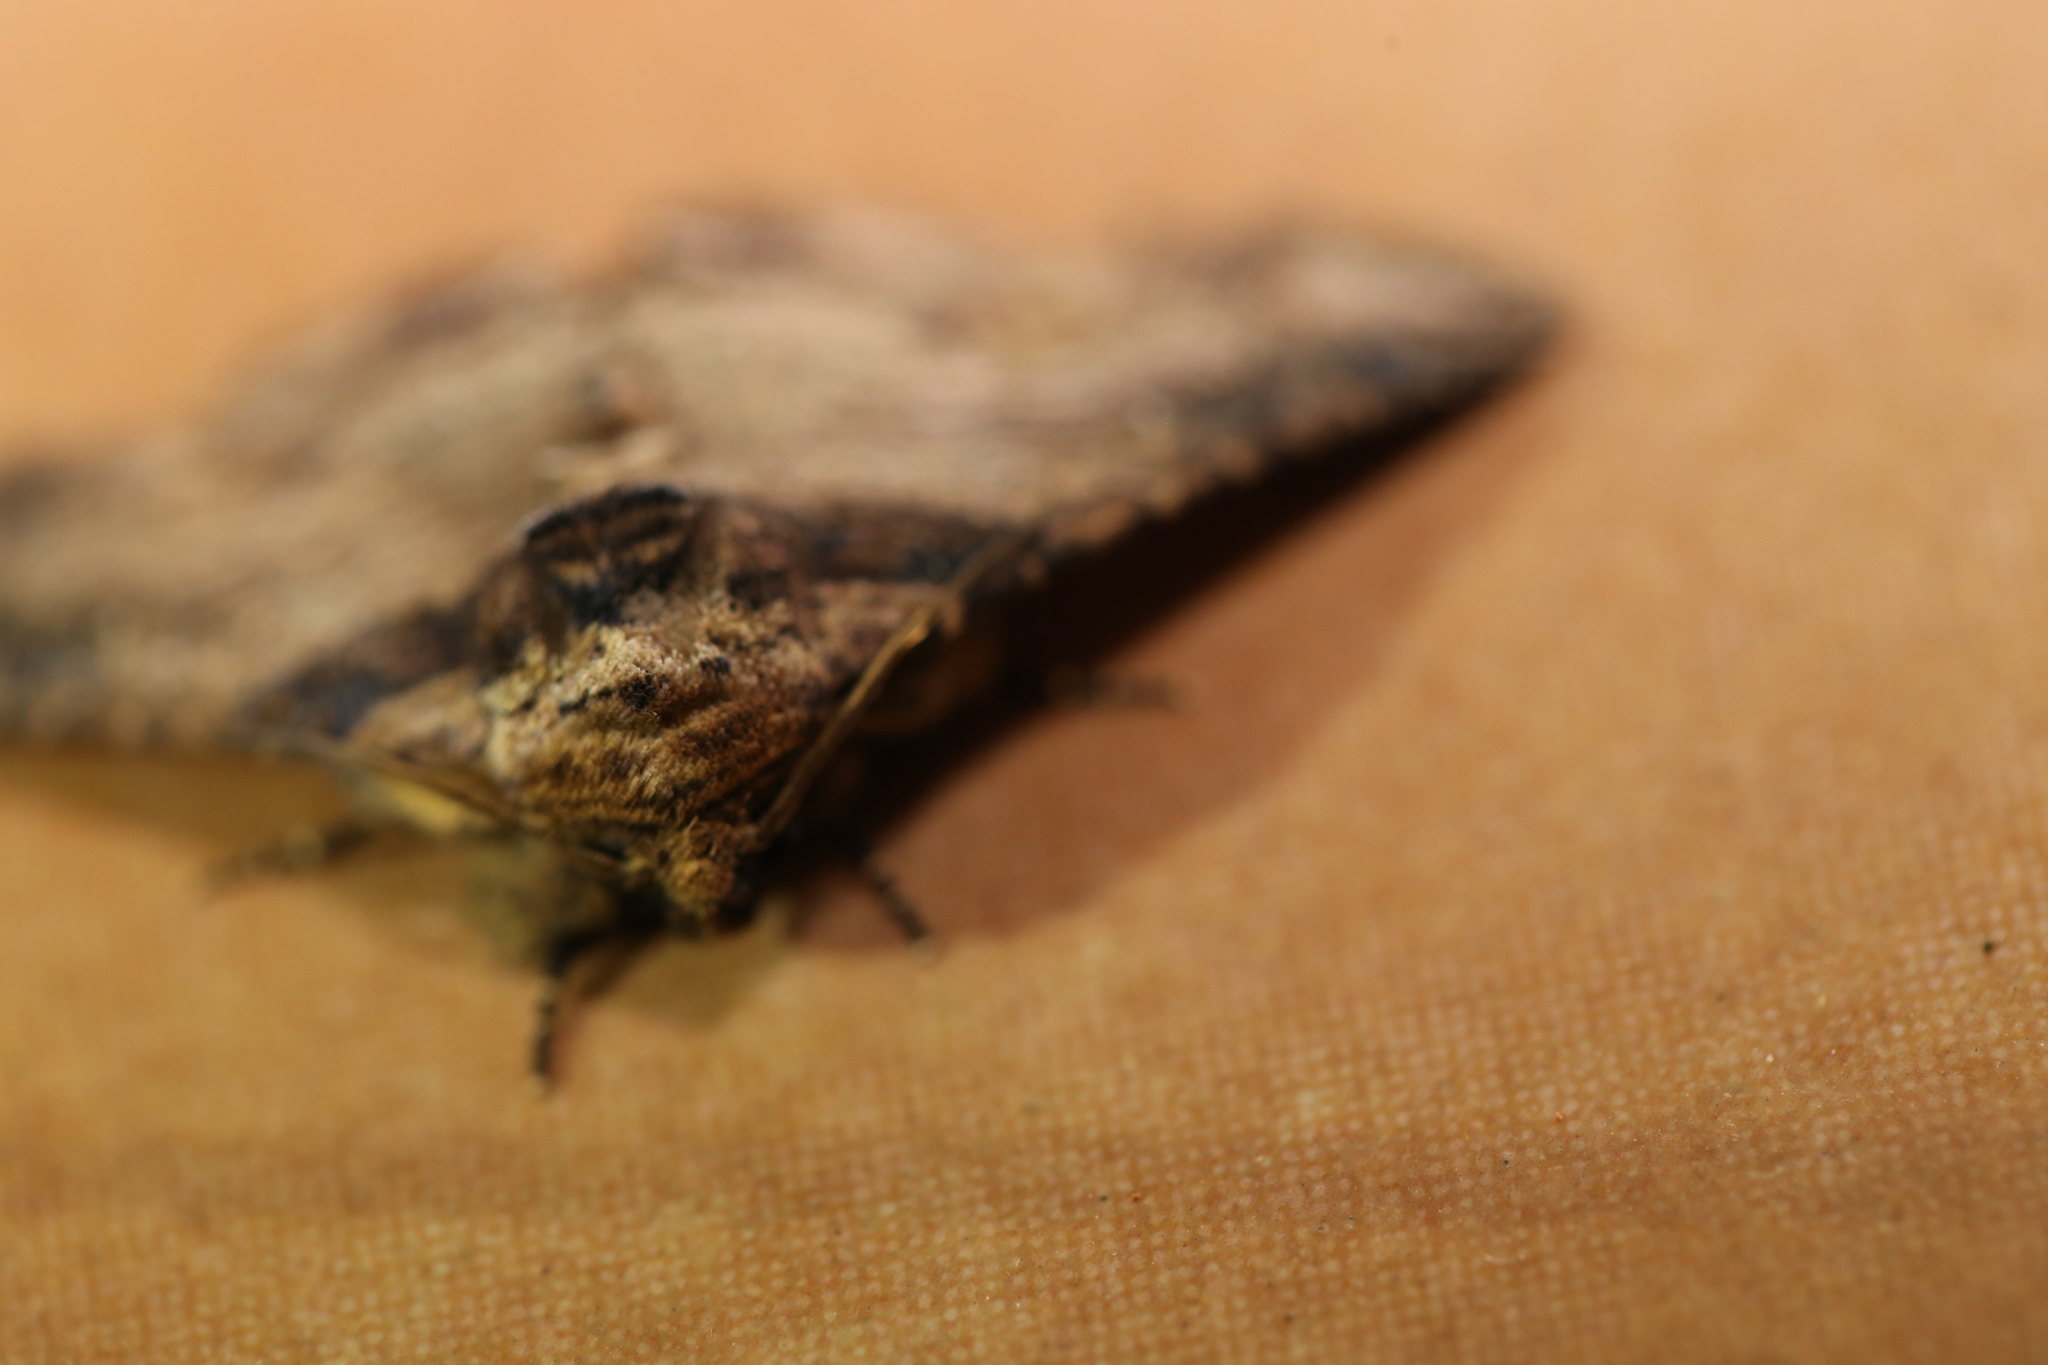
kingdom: Animalia
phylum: Arthropoda
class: Insecta
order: Lepidoptera
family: Erebidae
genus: Pericyma
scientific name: Pericyma cruegeri
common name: Poinciana looper
